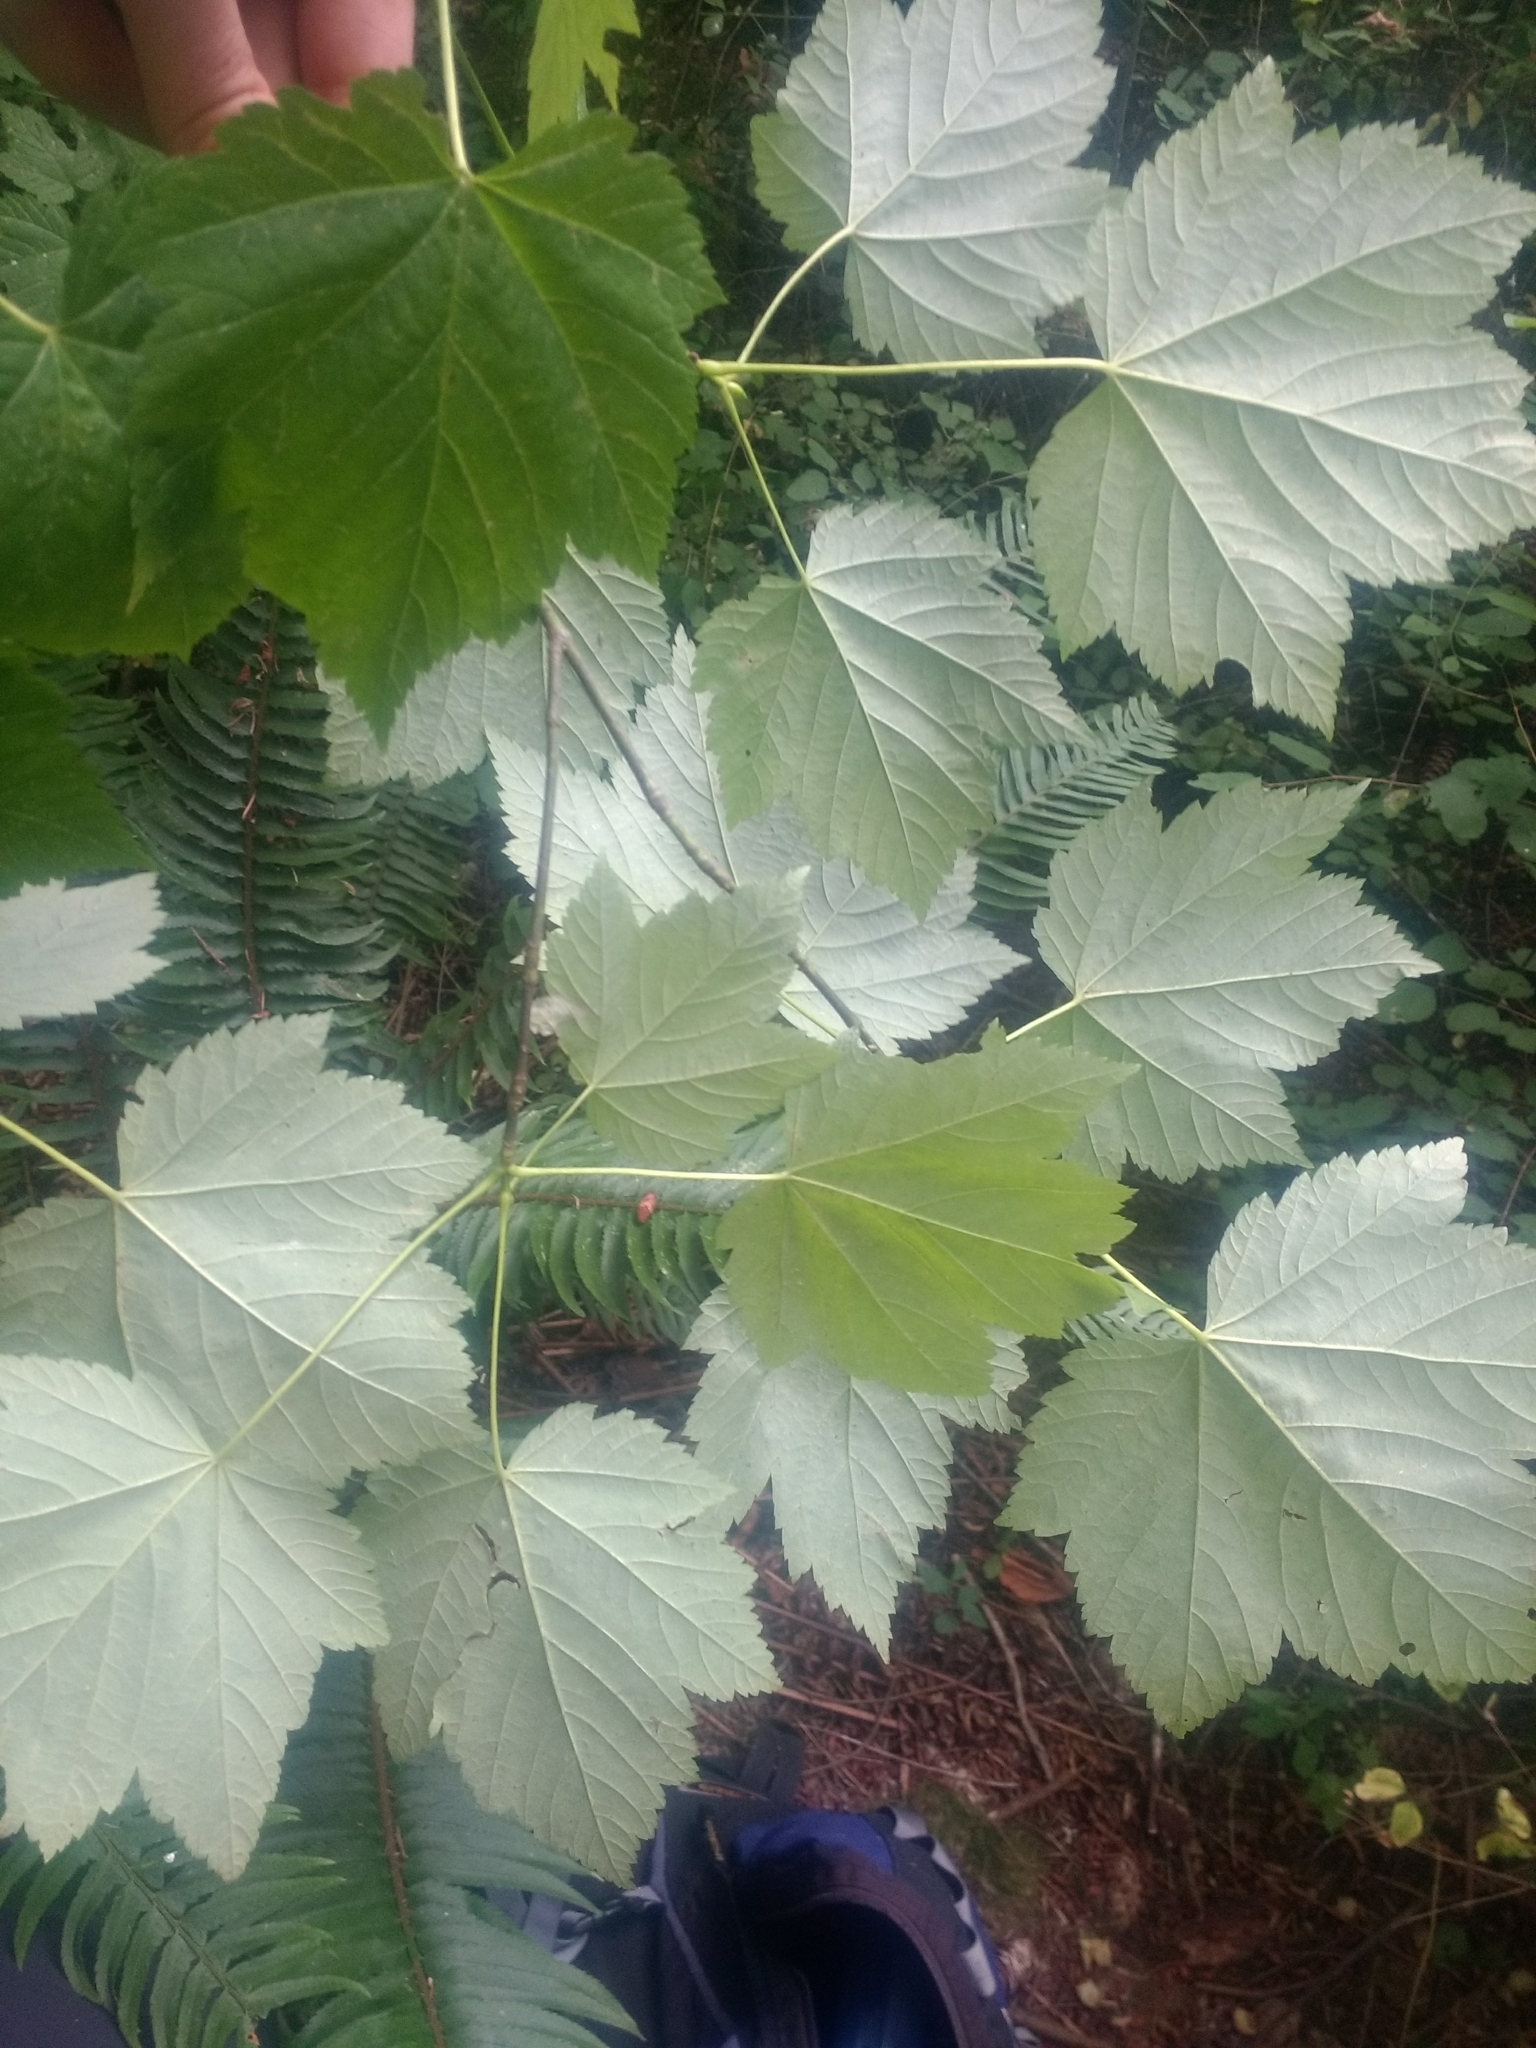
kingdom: Plantae
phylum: Tracheophyta
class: Magnoliopsida
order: Sapindales
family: Sapindaceae
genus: Acer
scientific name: Acer glabrum
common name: Rocky mountain maple
